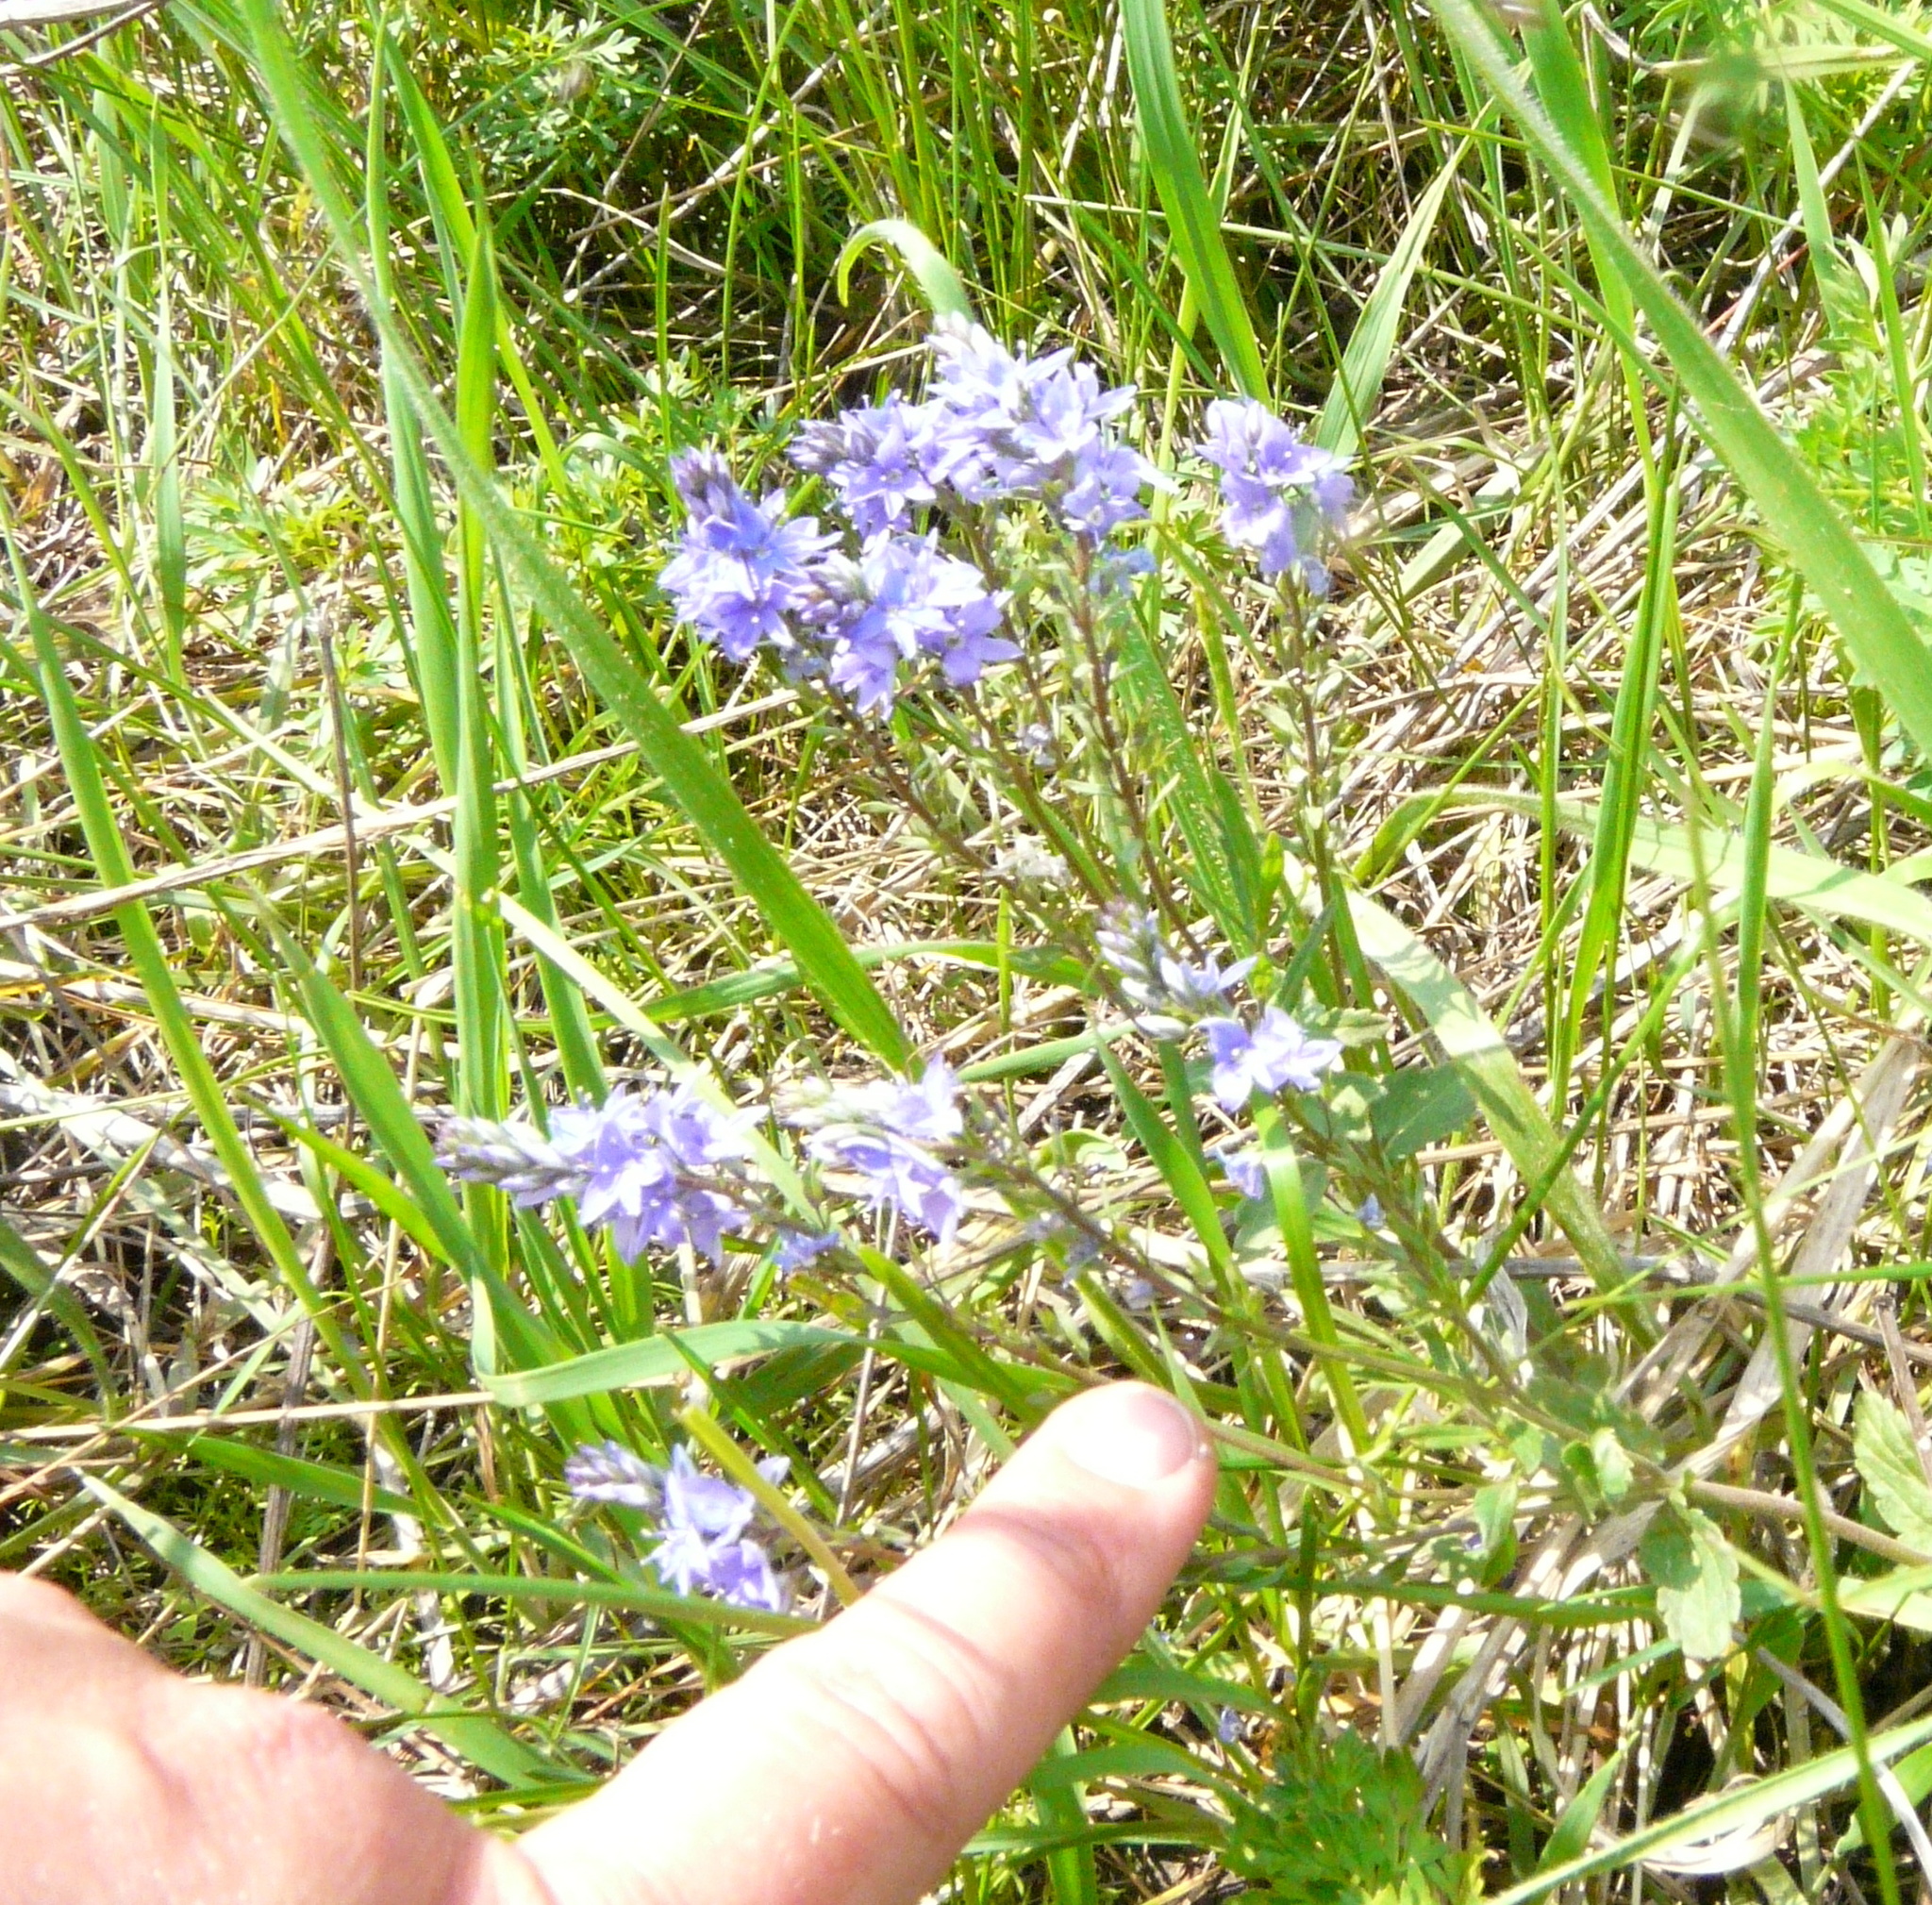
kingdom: Plantae
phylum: Tracheophyta
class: Magnoliopsida
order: Lamiales
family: Plantaginaceae
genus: Veronica
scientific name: Veronica prostrata
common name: Prostrate speedwell
